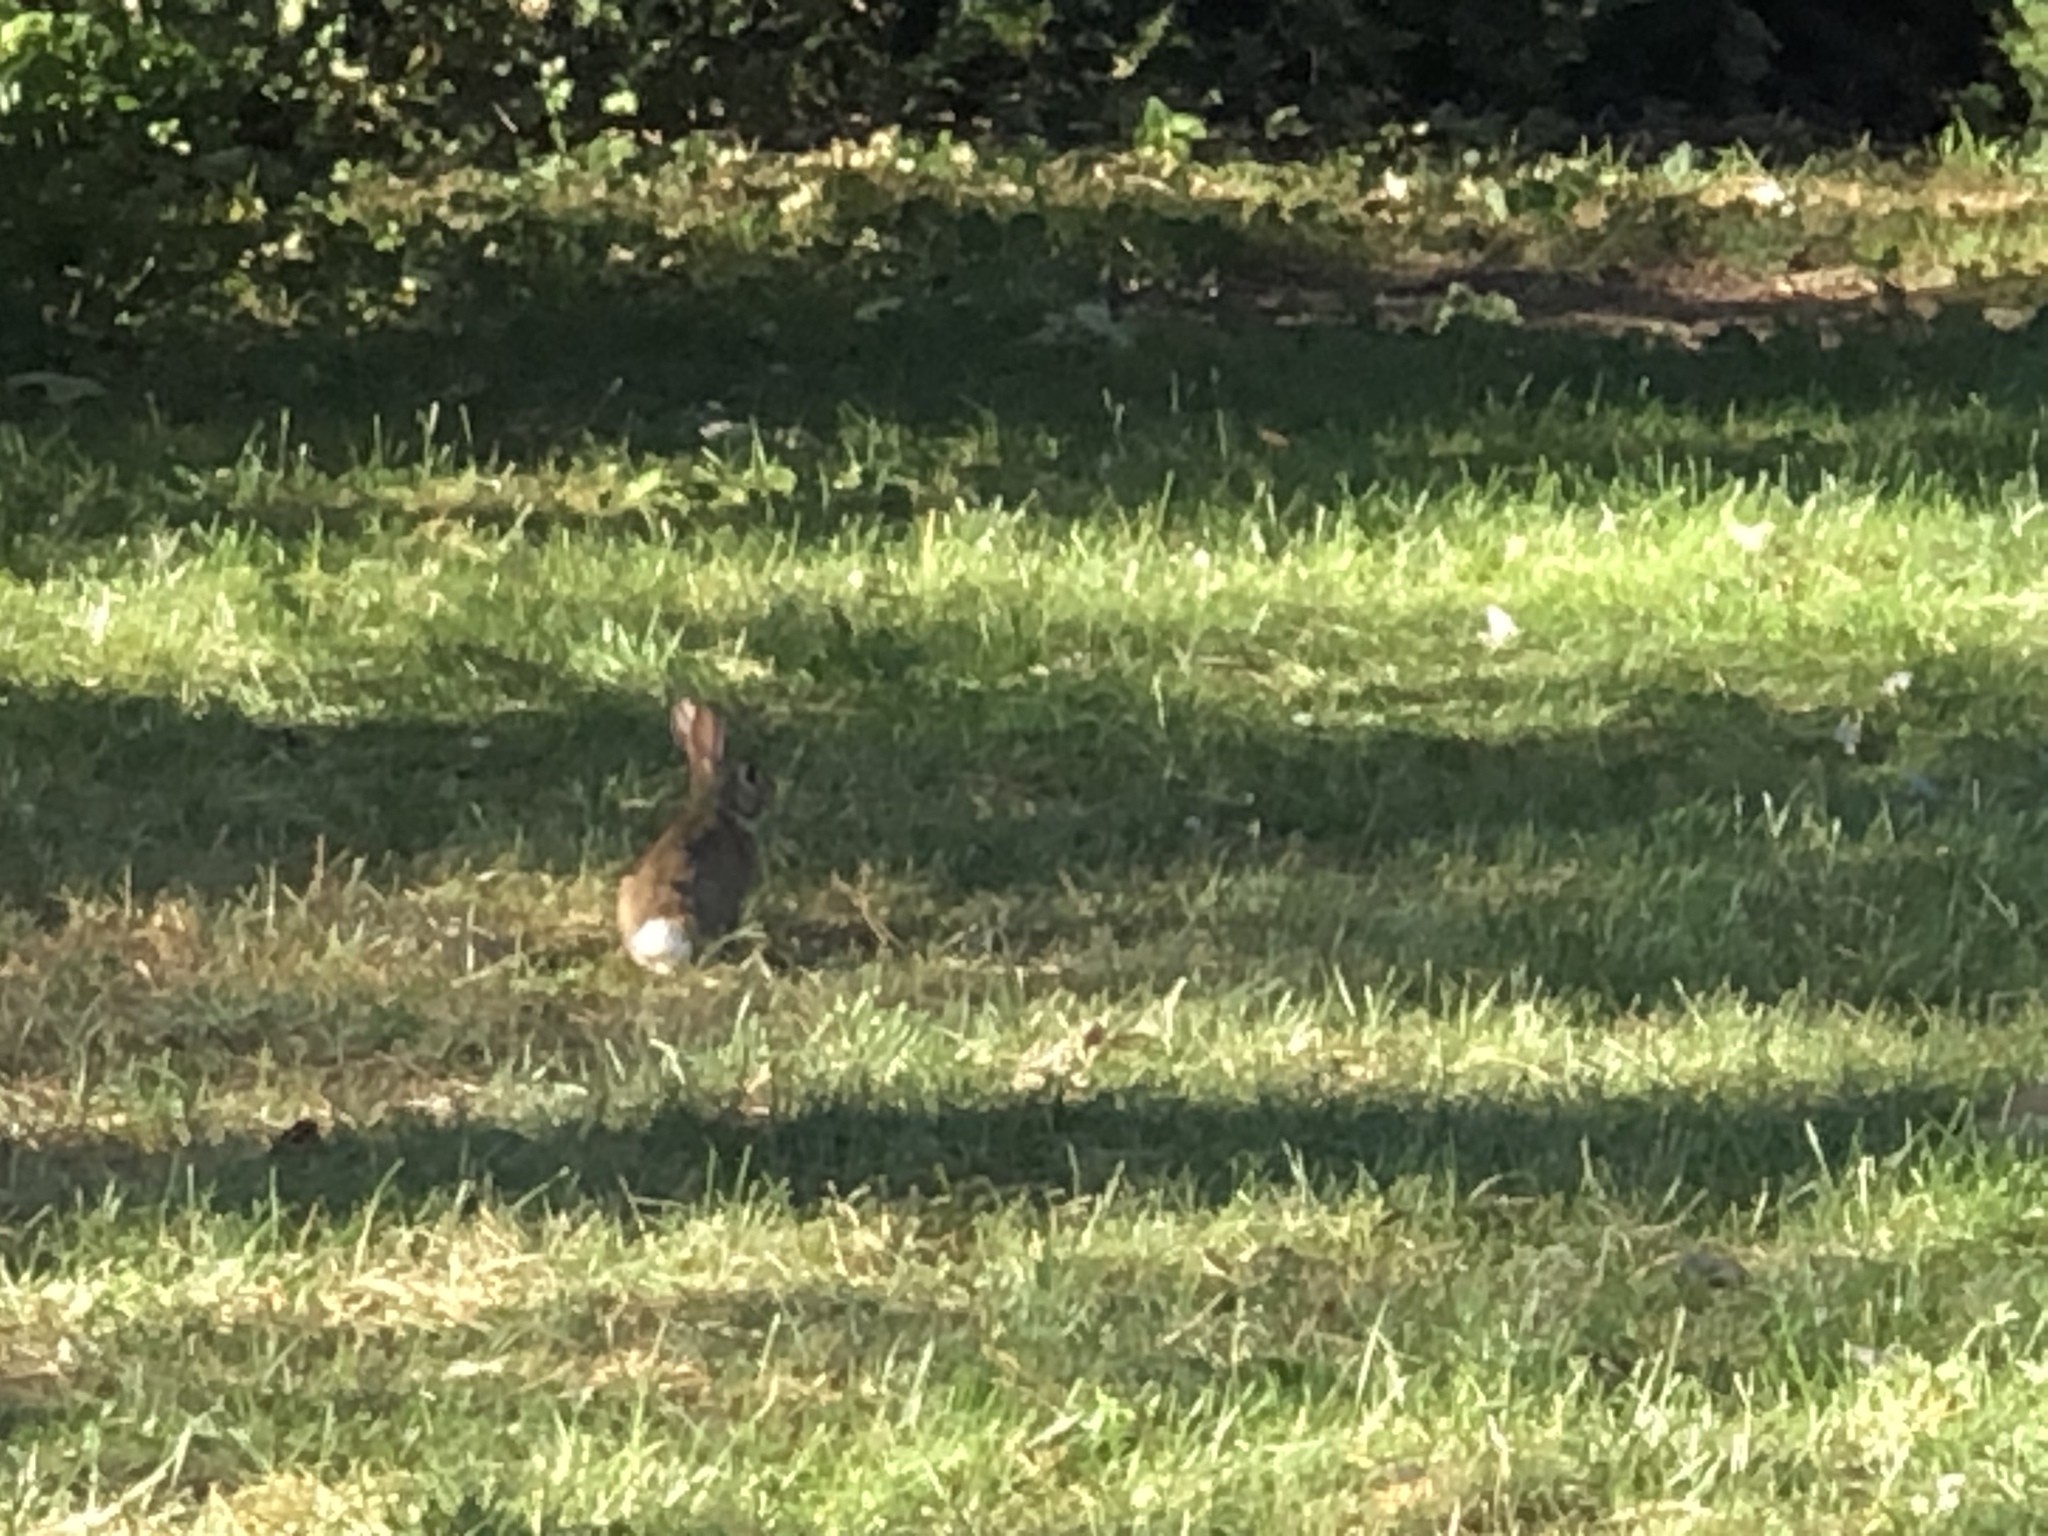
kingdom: Animalia
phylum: Chordata
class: Mammalia
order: Lagomorpha
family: Leporidae
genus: Sylvilagus
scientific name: Sylvilagus floridanus
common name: Eastern cottontail
